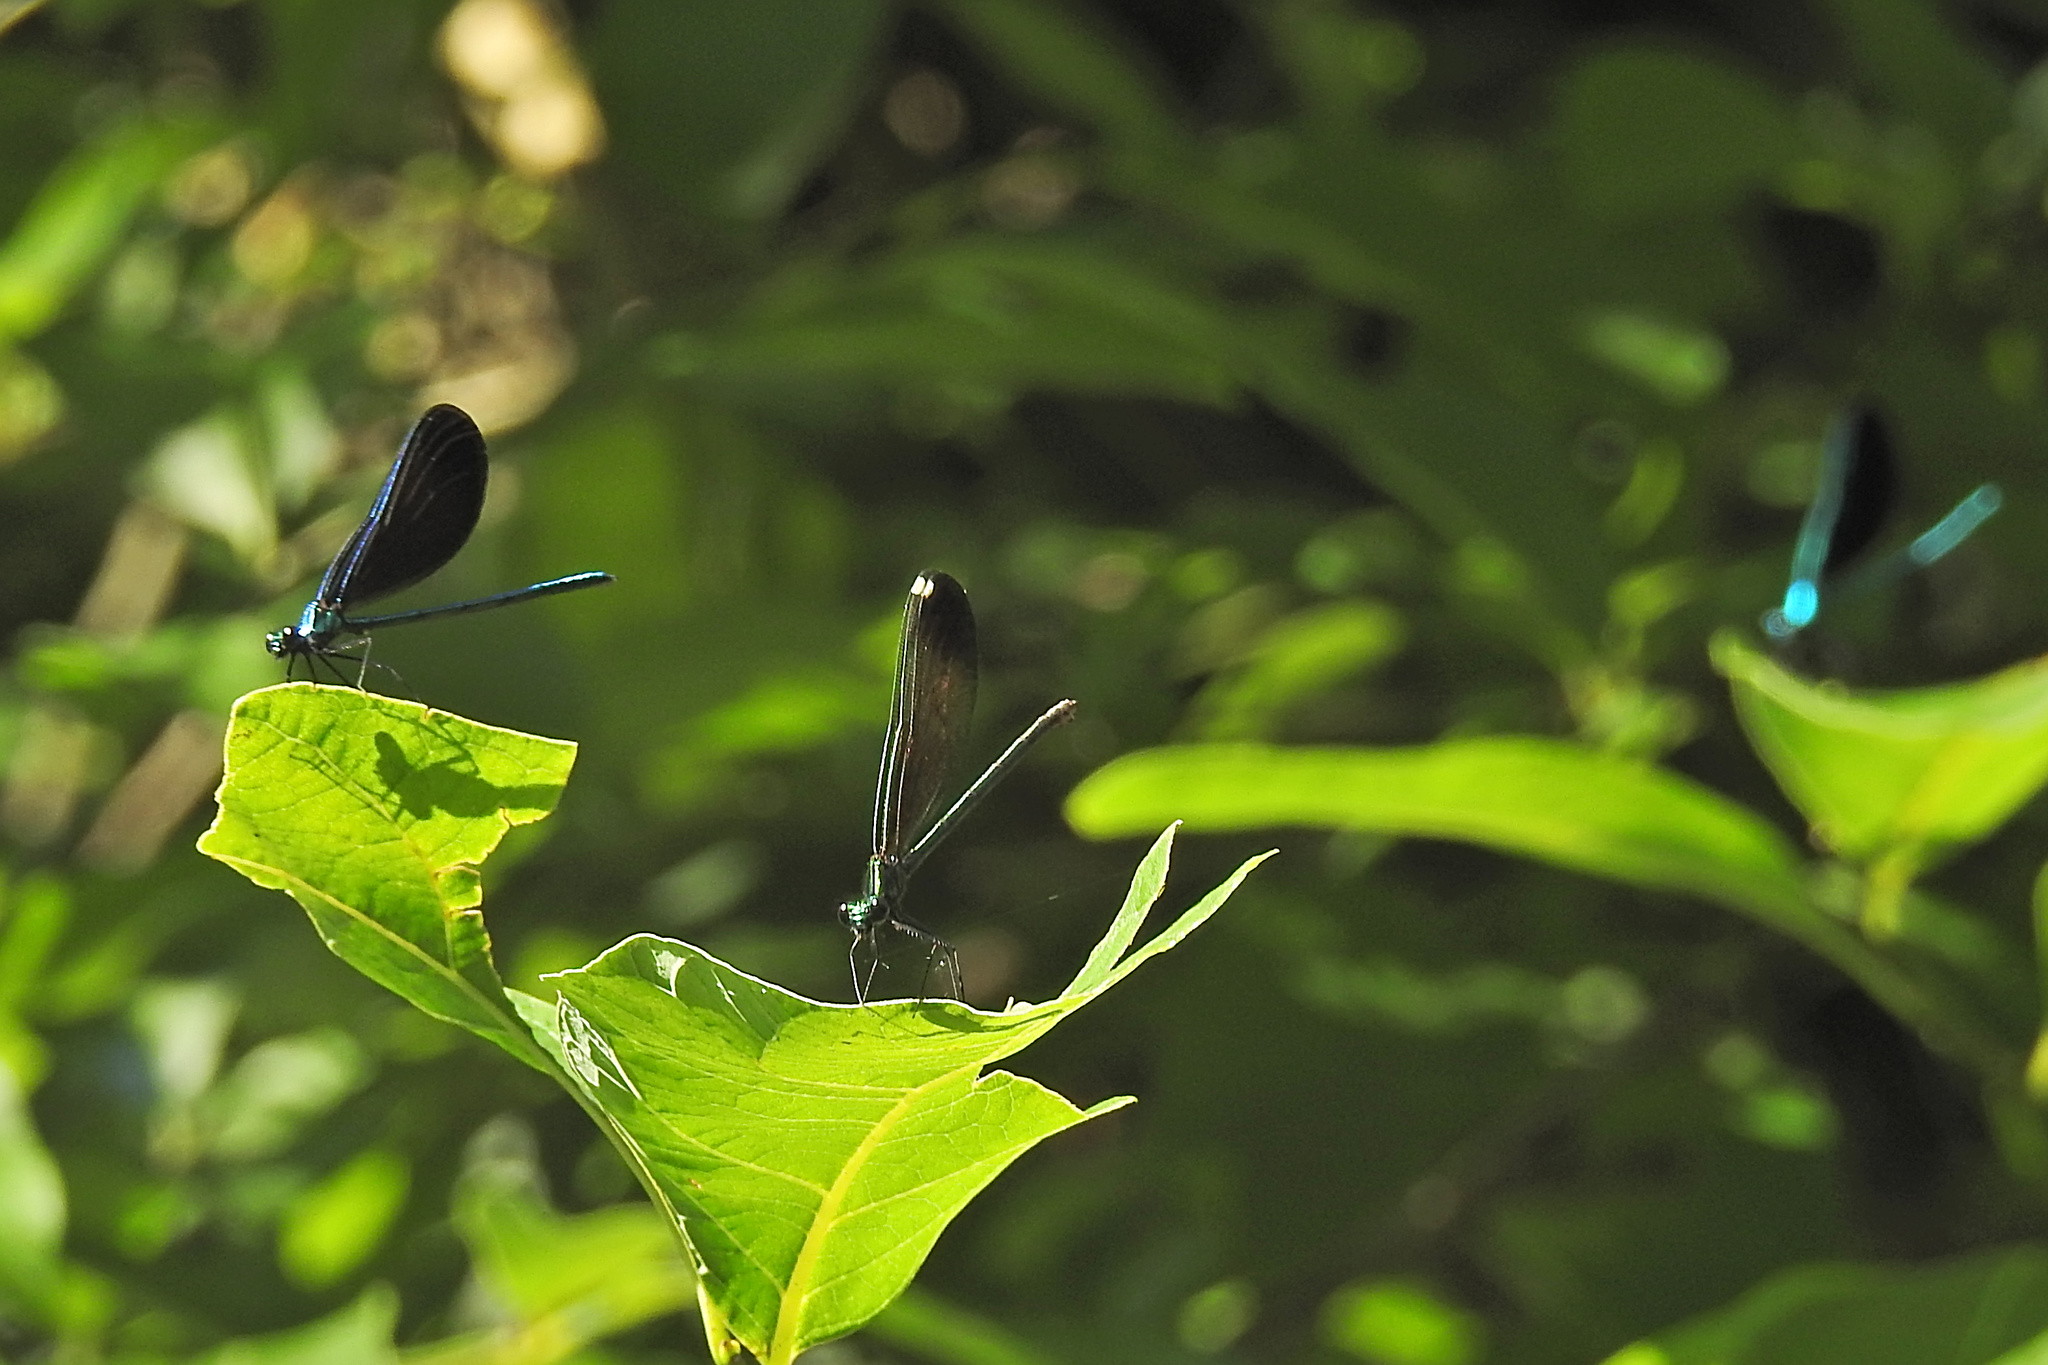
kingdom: Animalia
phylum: Arthropoda
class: Insecta
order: Odonata
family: Calopterygidae
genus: Calopteryx
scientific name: Calopteryx maculata
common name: Ebony jewelwing
